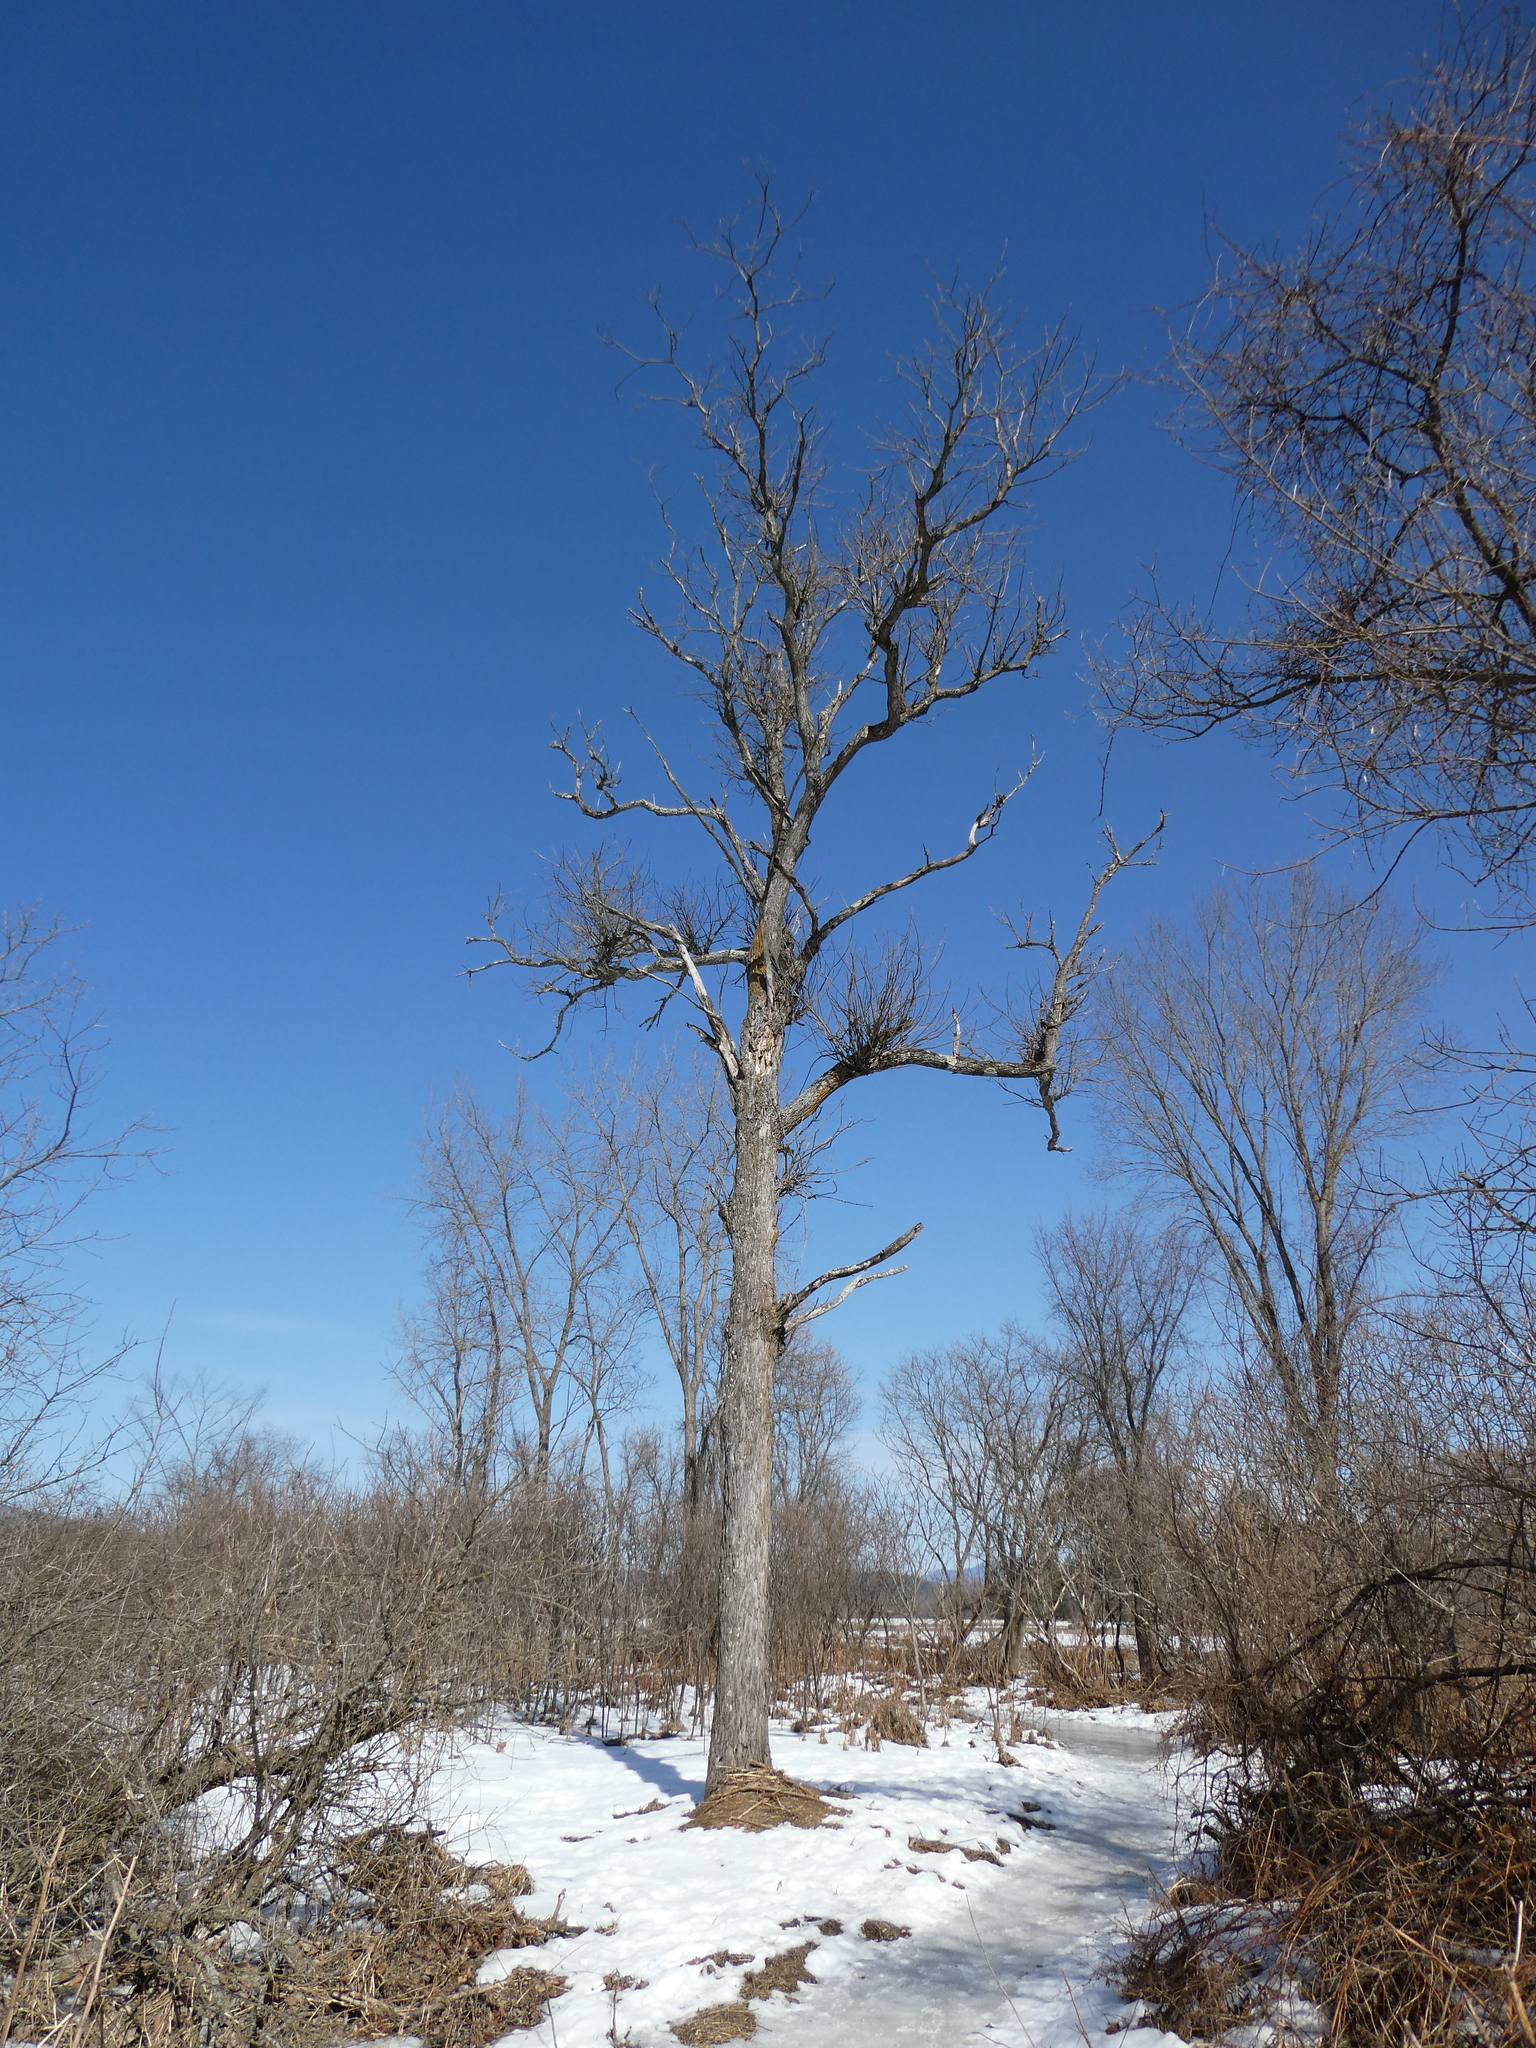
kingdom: Plantae
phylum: Tracheophyta
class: Magnoliopsida
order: Fagales
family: Juglandaceae
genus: Juglans
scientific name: Juglans cinerea
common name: Butternut
